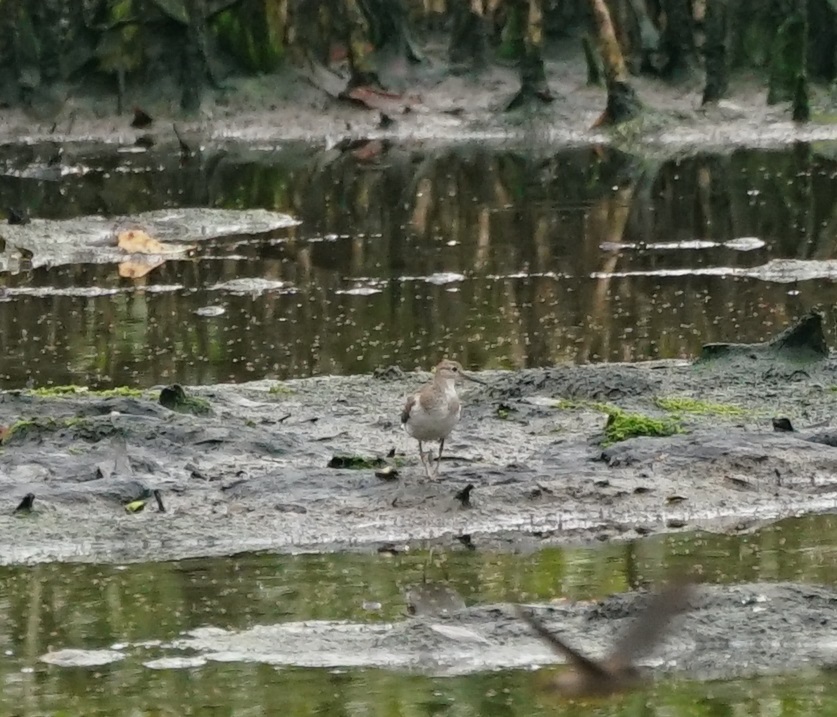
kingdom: Animalia
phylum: Chordata
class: Aves
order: Charadriiformes
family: Scolopacidae
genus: Actitis
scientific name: Actitis hypoleucos
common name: Common sandpiper
